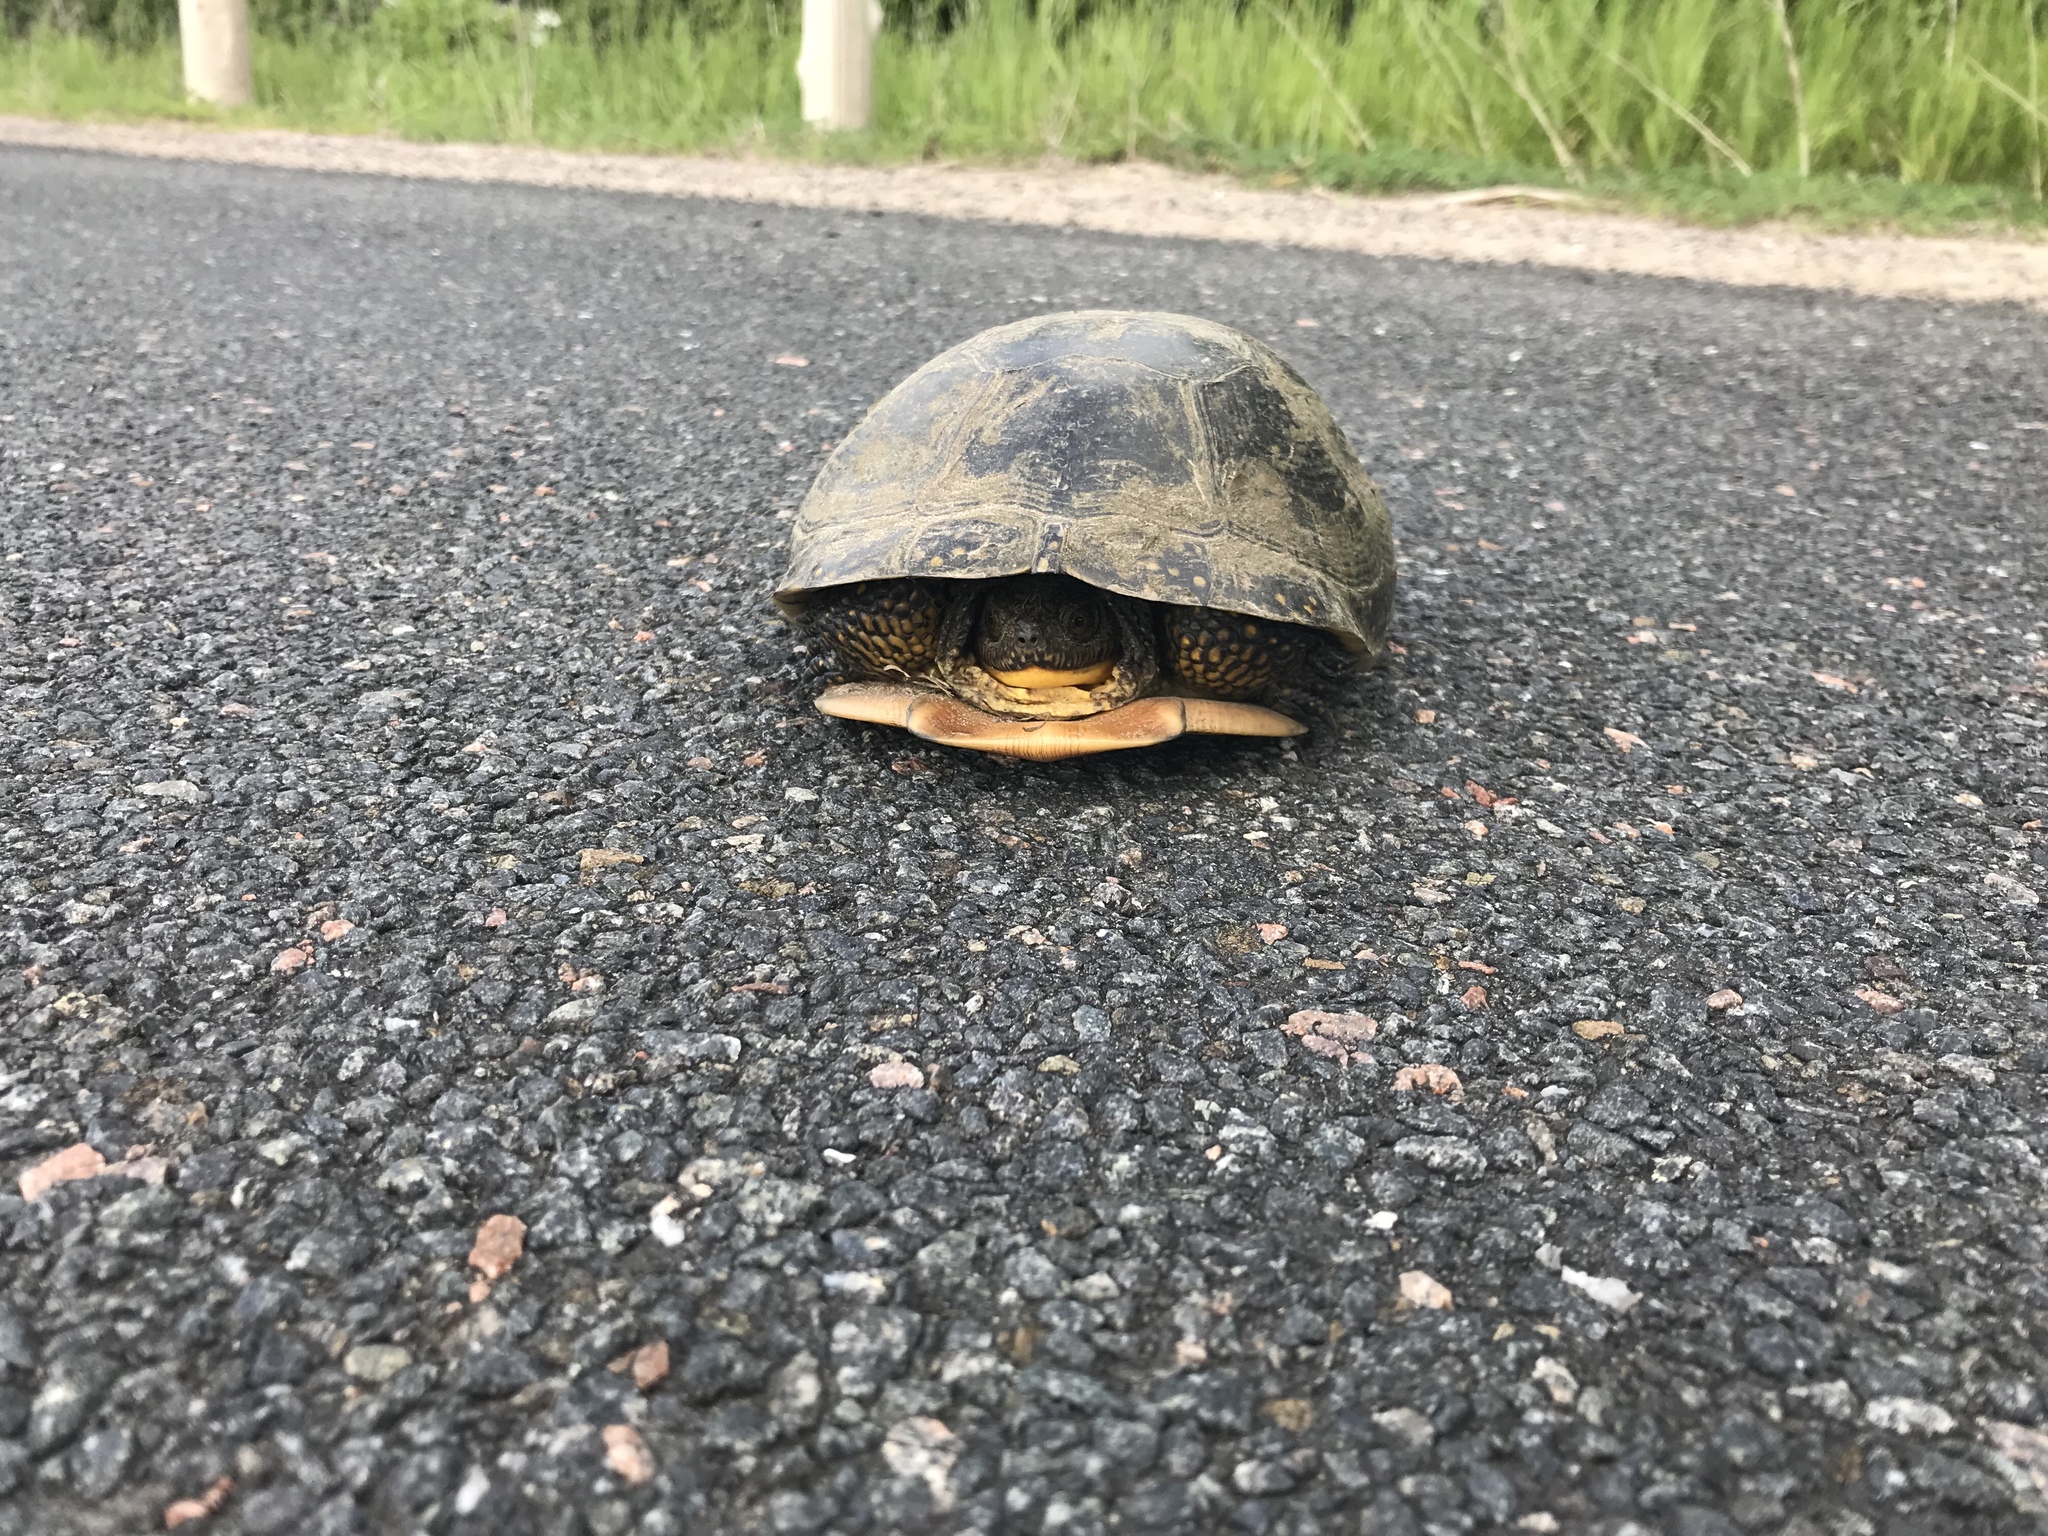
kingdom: Animalia
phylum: Chordata
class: Testudines
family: Emydidae
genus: Emys
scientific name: Emys blandingii
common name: Blanding's turtle
